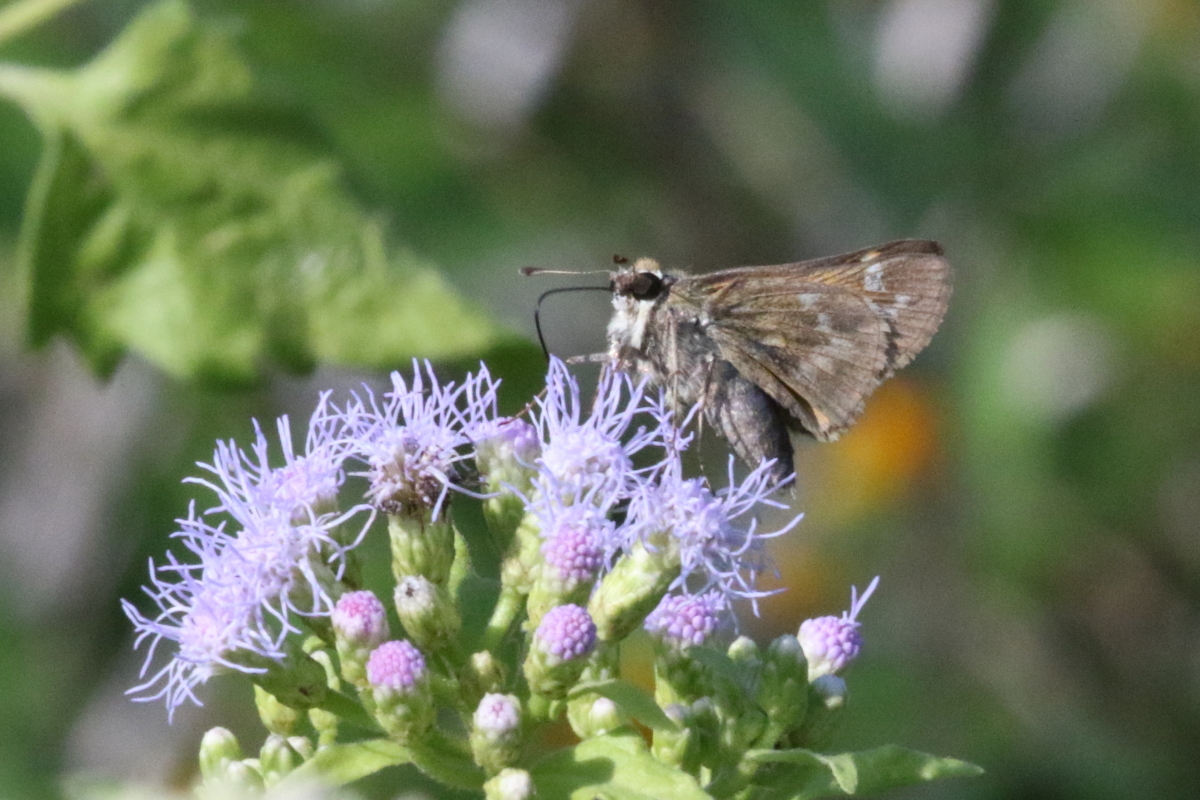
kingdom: Animalia
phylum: Arthropoda
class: Insecta
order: Lepidoptera
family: Hesperiidae
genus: Atalopedes
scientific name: Atalopedes
